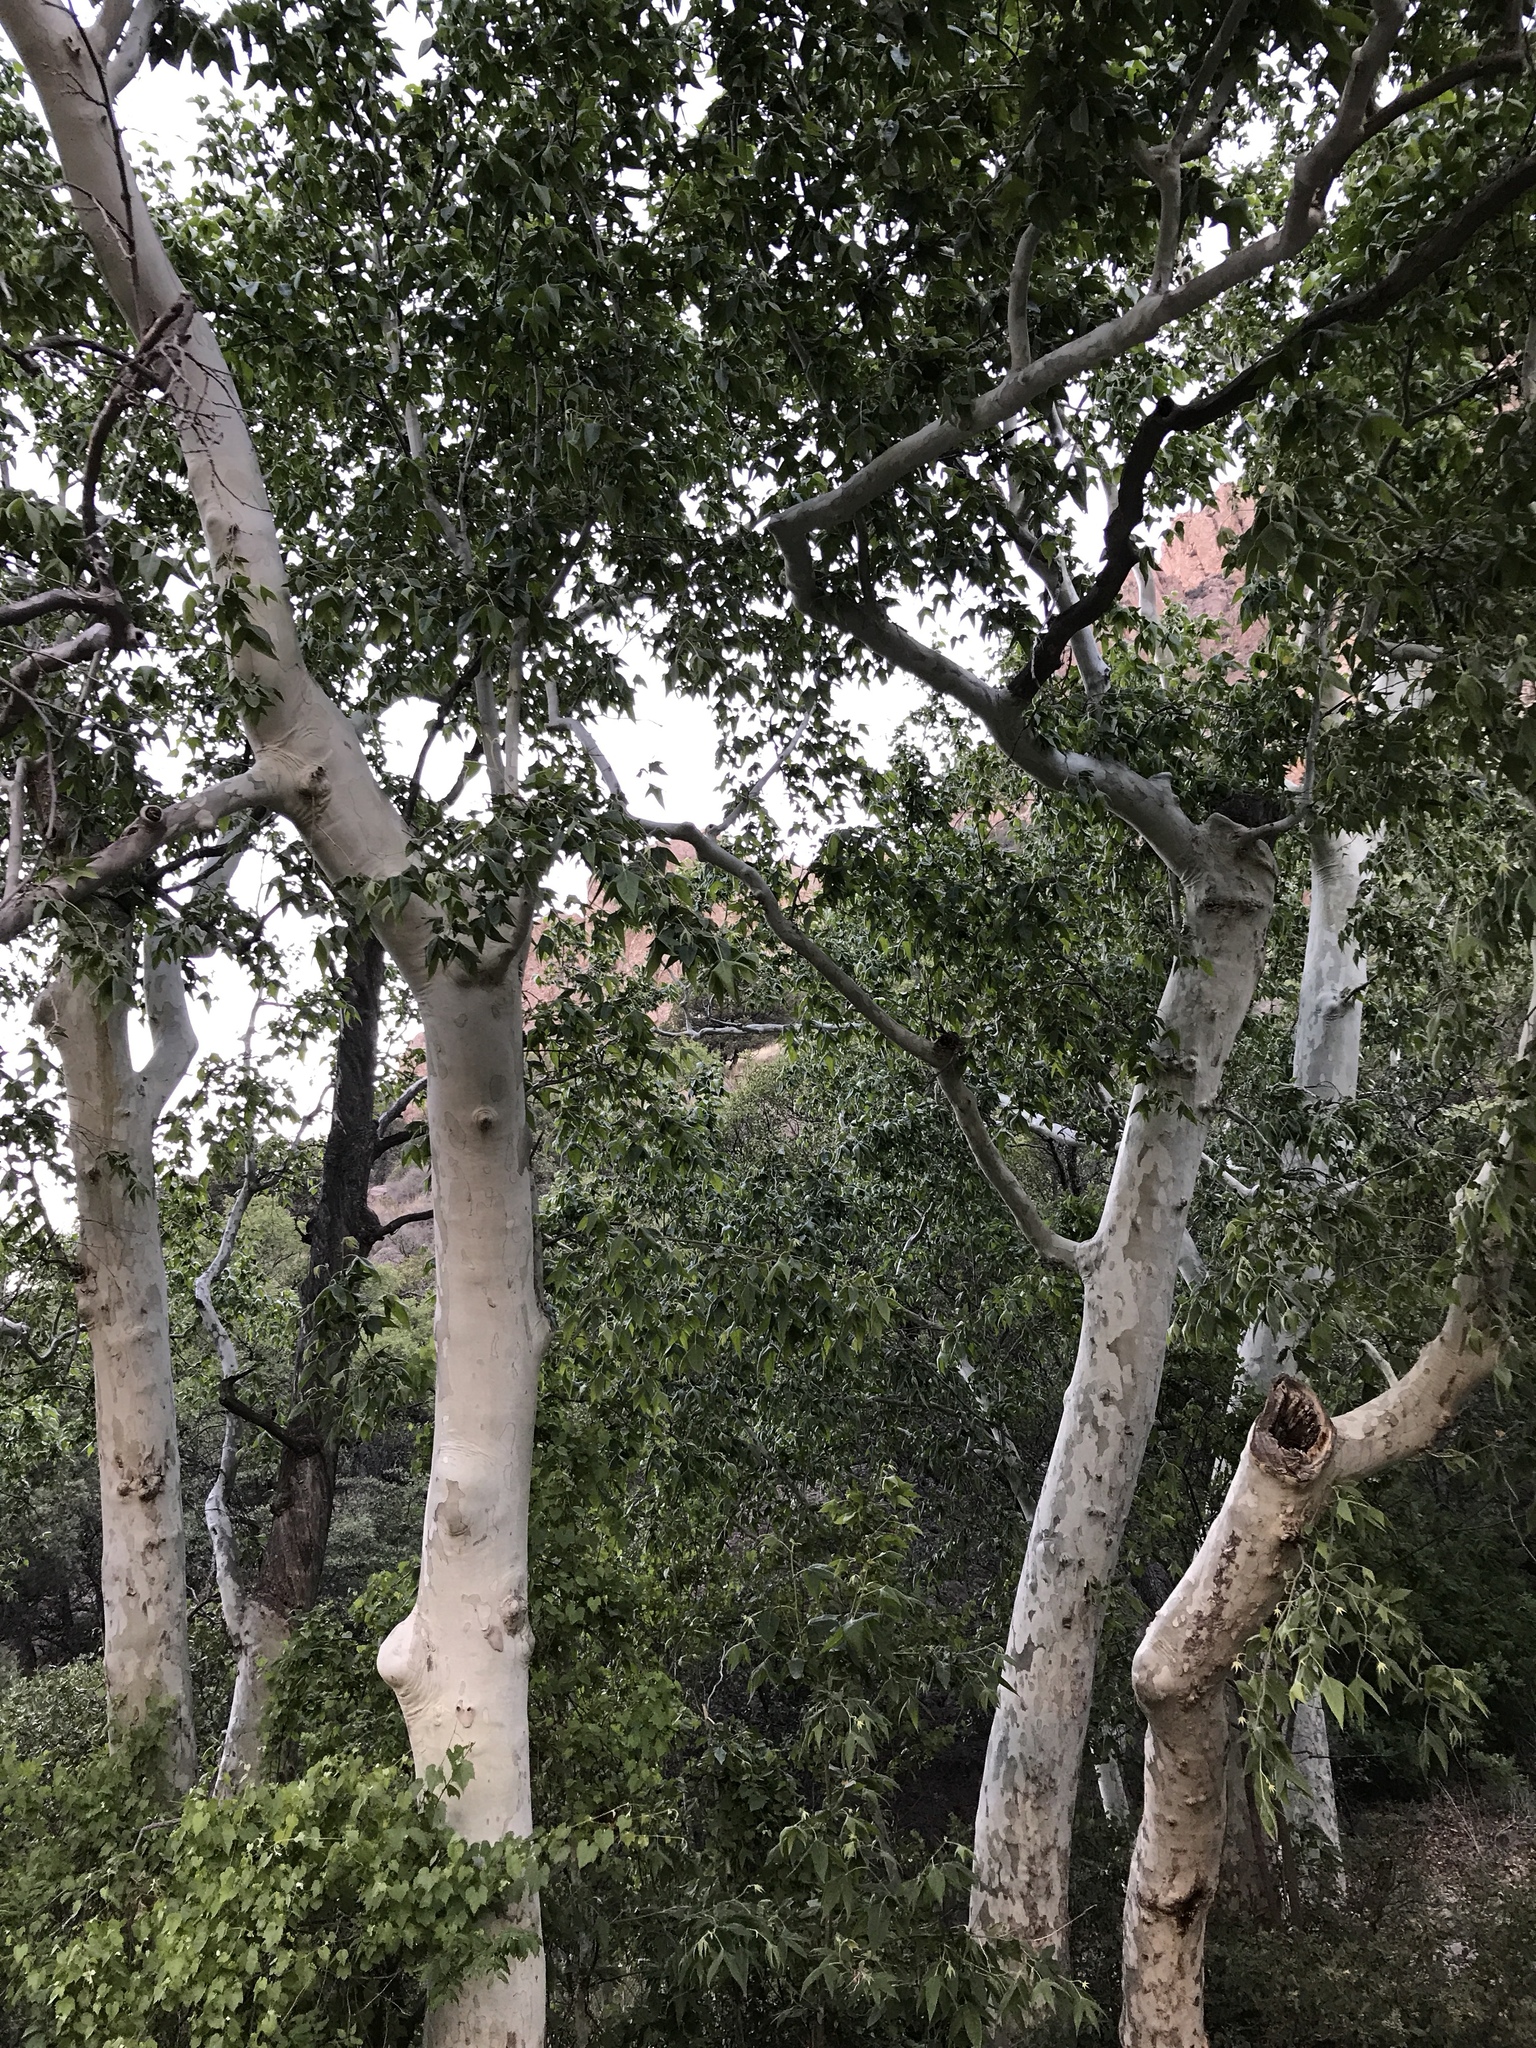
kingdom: Plantae
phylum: Tracheophyta
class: Magnoliopsida
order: Proteales
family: Platanaceae
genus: Platanus
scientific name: Platanus wrightii
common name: Arizona sycamore
